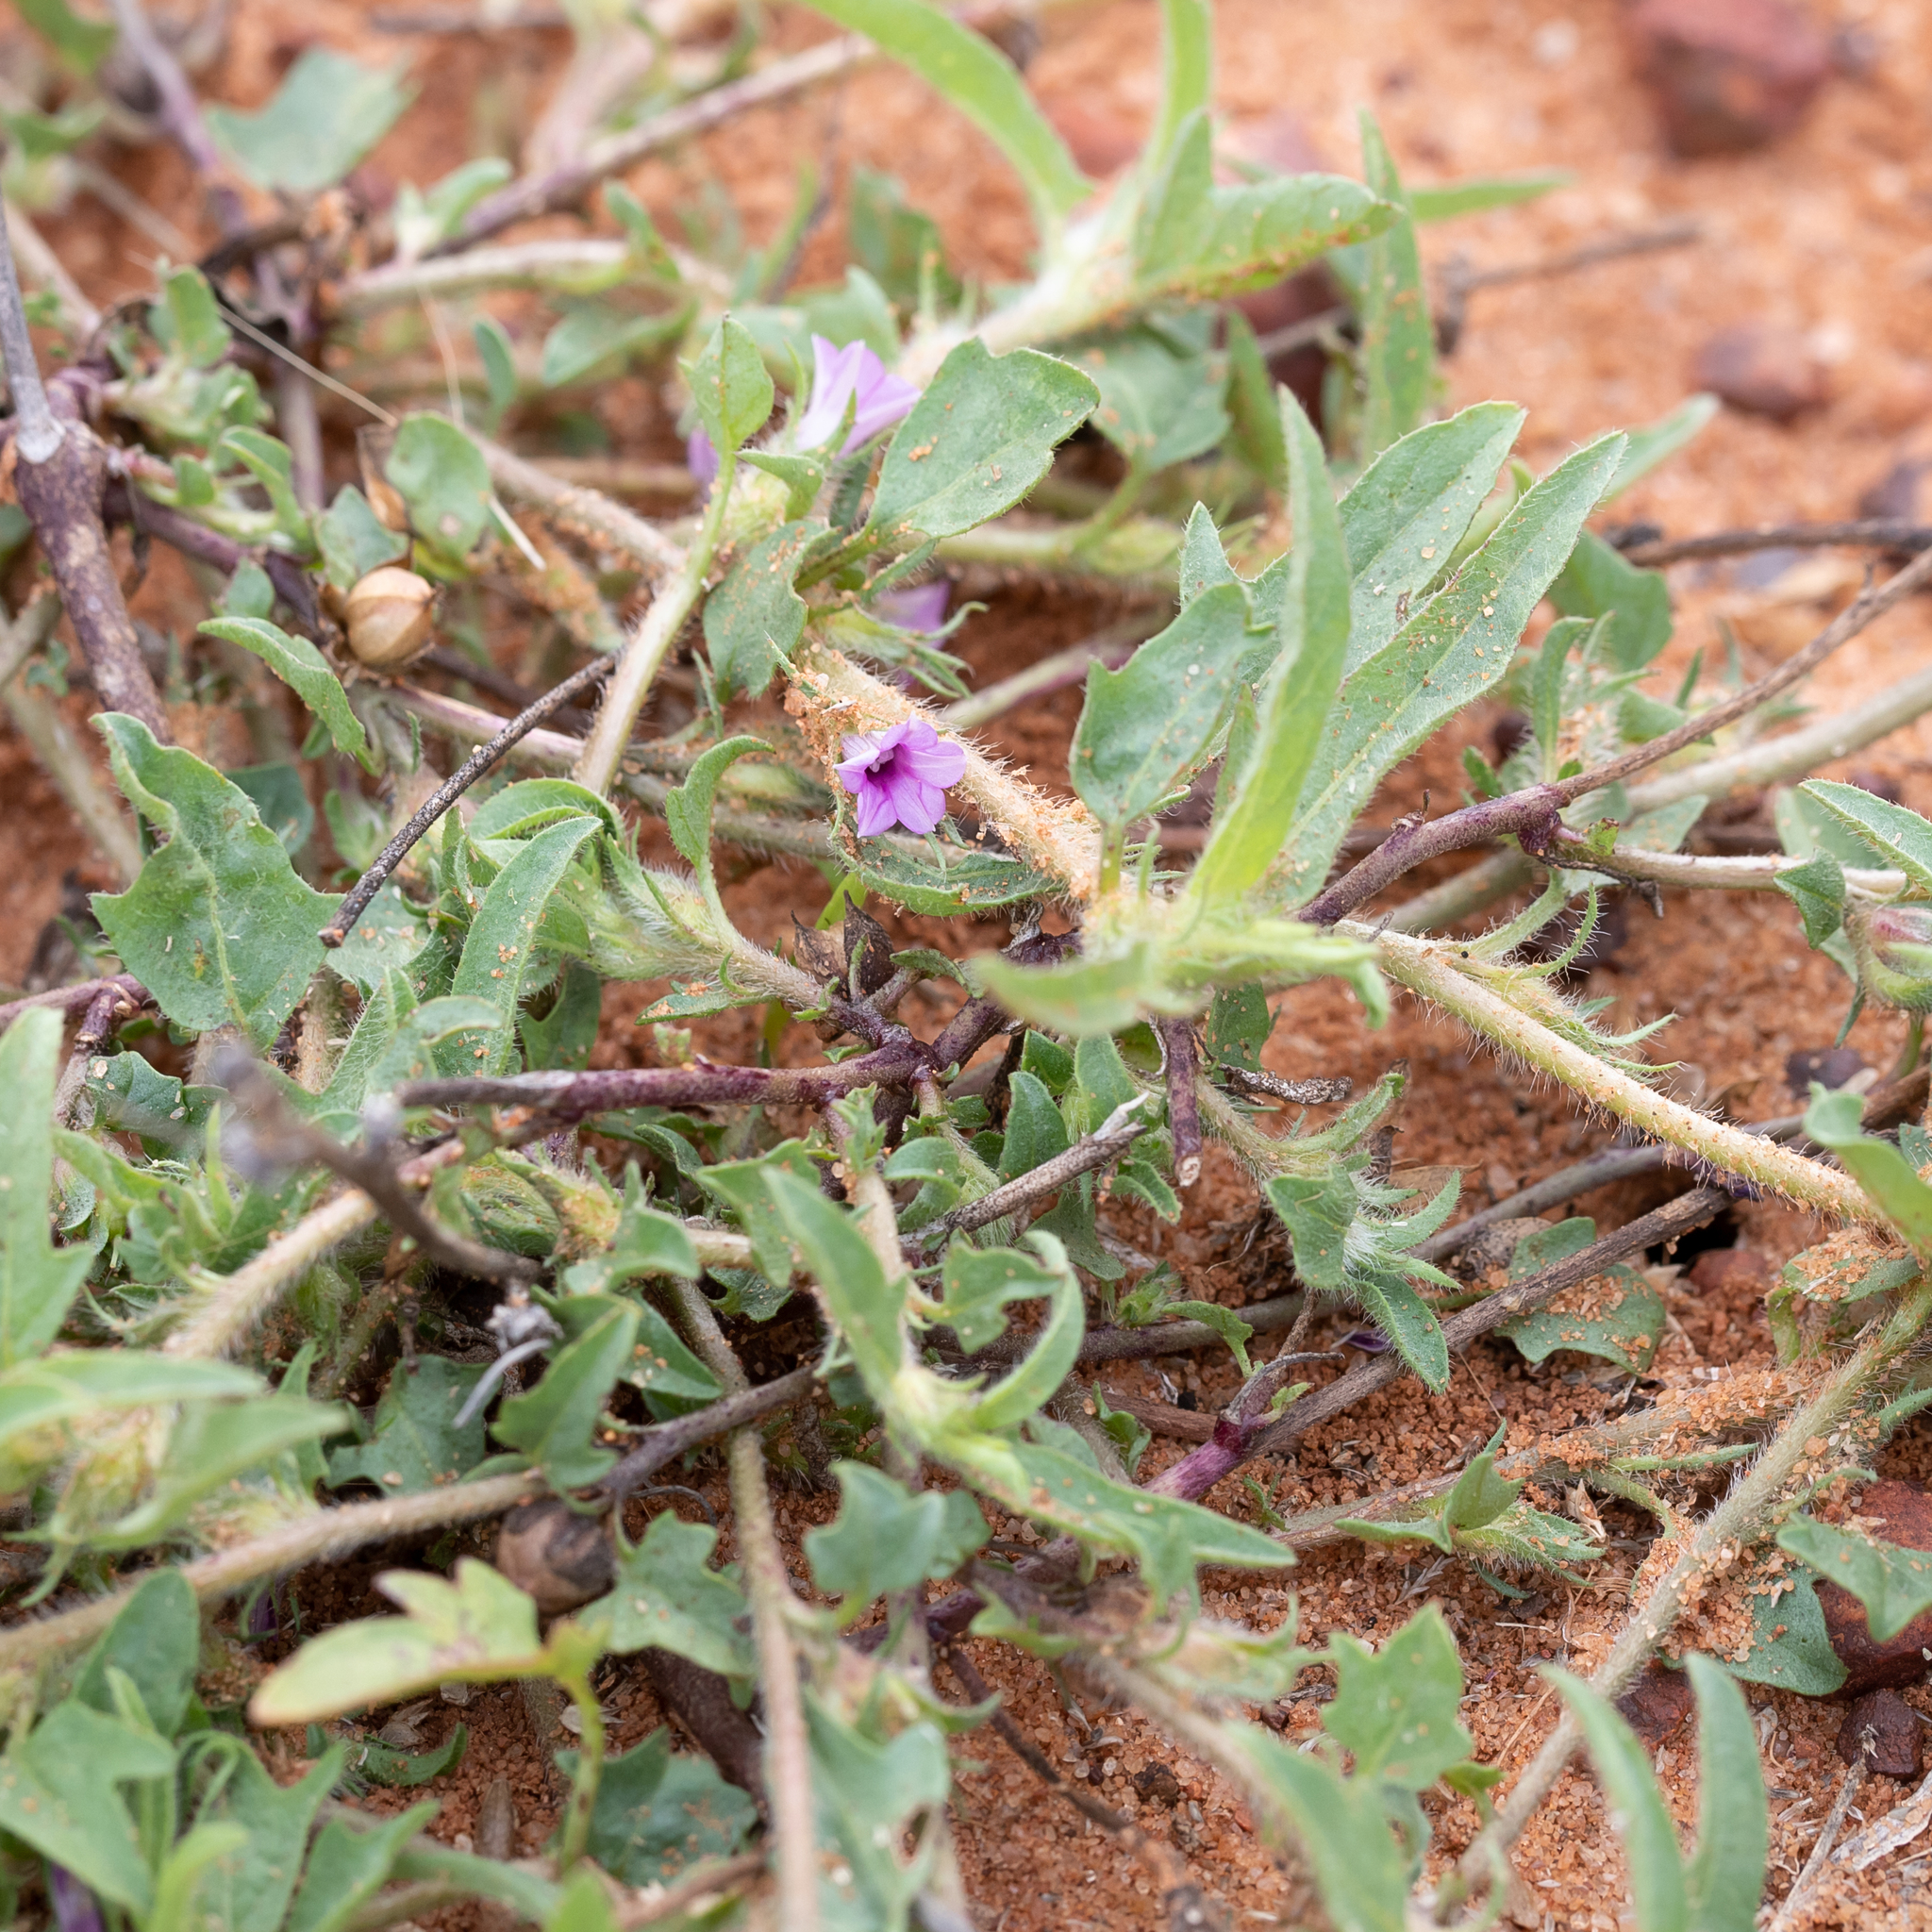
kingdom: Plantae
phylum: Tracheophyta
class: Magnoliopsida
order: Solanales
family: Convolvulaceae
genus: Ipomoea
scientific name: Ipomoea polymorpha
